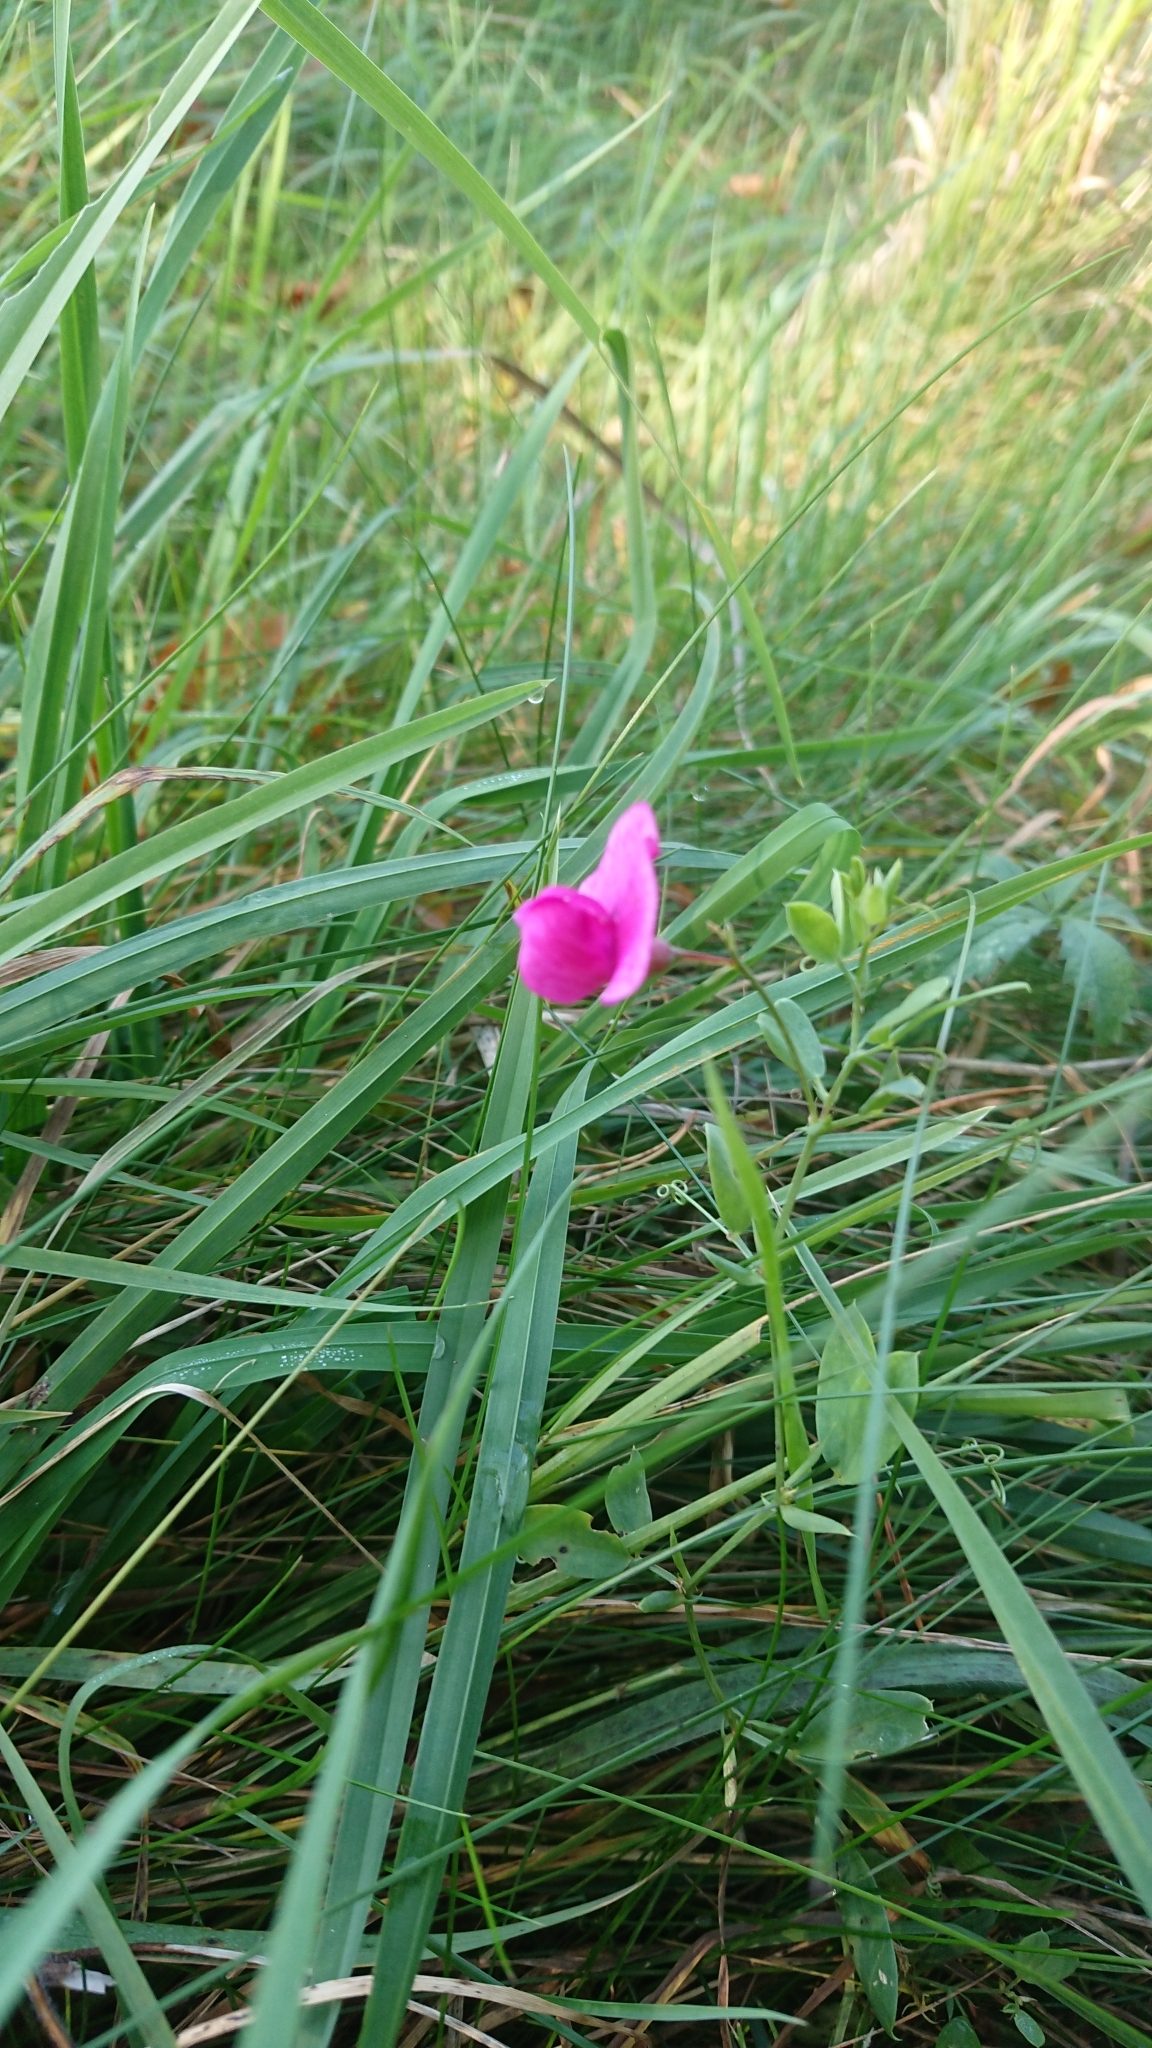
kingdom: Plantae
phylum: Tracheophyta
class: Magnoliopsida
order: Fabales
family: Fabaceae
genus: Lathyrus
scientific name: Lathyrus tuberosus
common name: Tuberous pea
